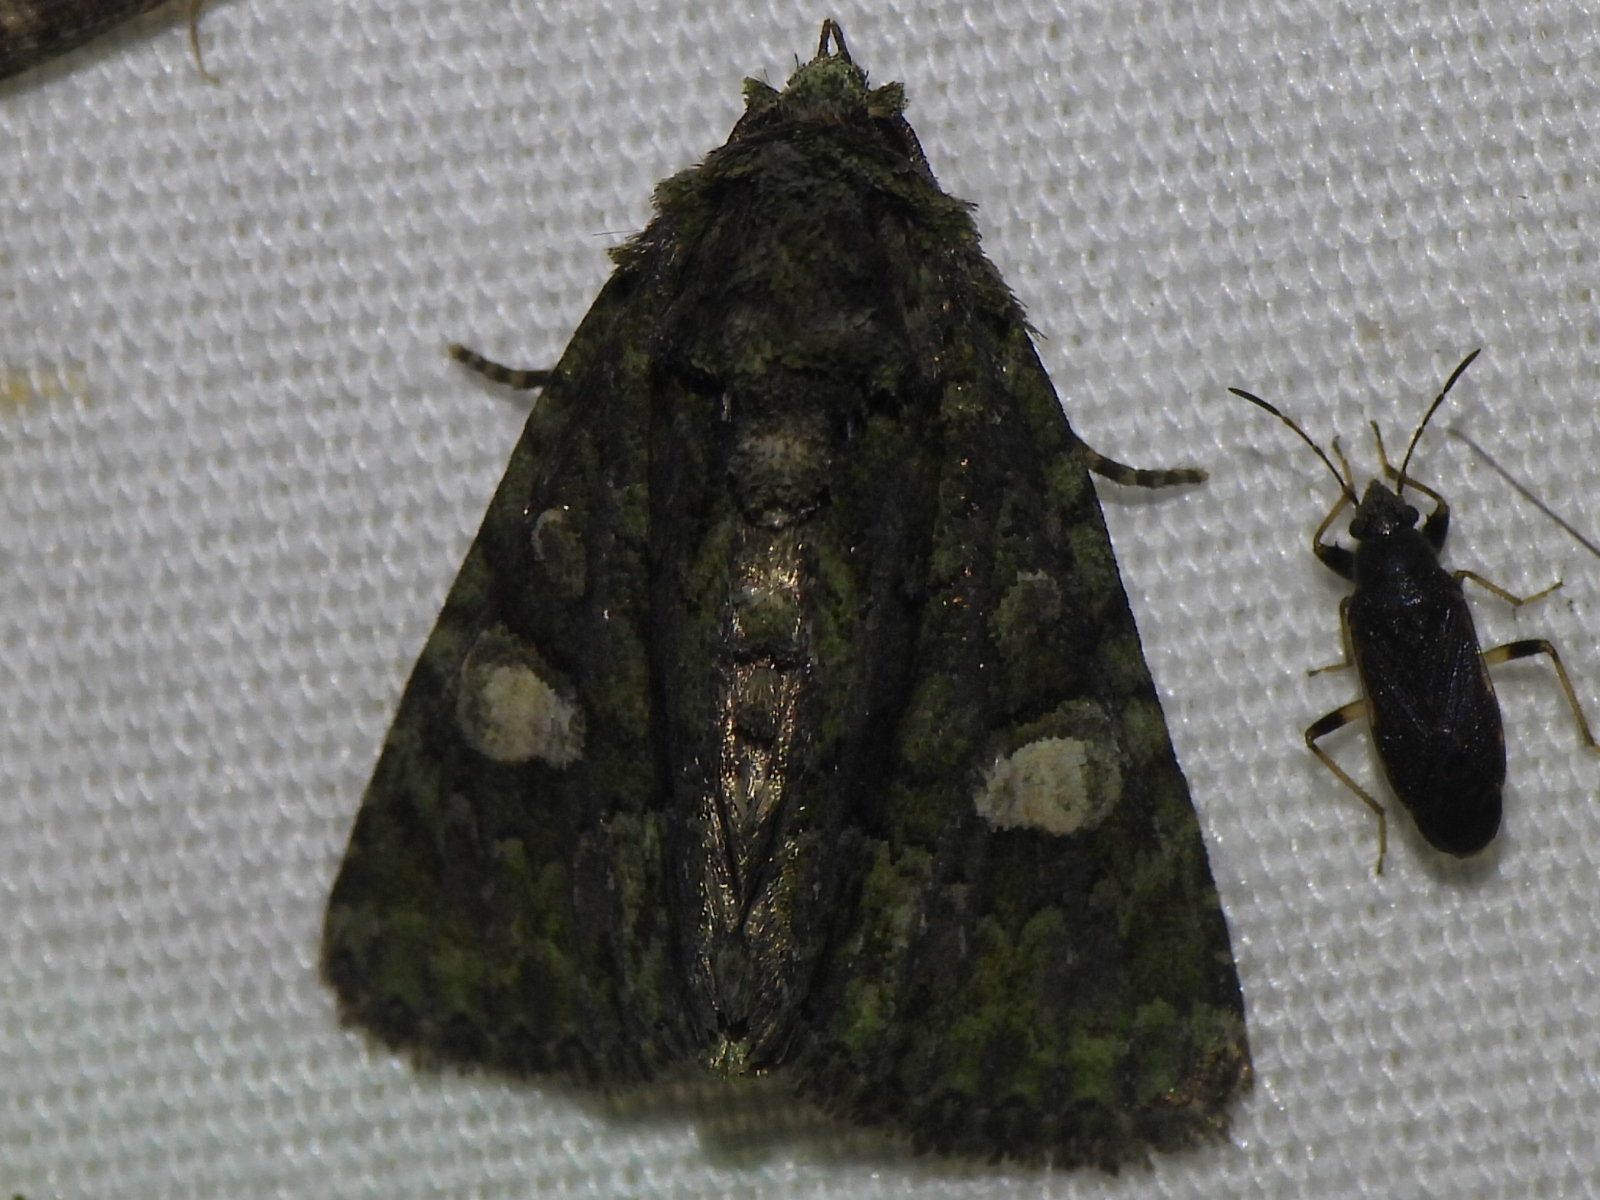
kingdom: Animalia
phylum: Arthropoda
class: Insecta
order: Lepidoptera
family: Noctuidae
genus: Phosphila
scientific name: Phosphila miselioides
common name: Spotted phosphila moth
